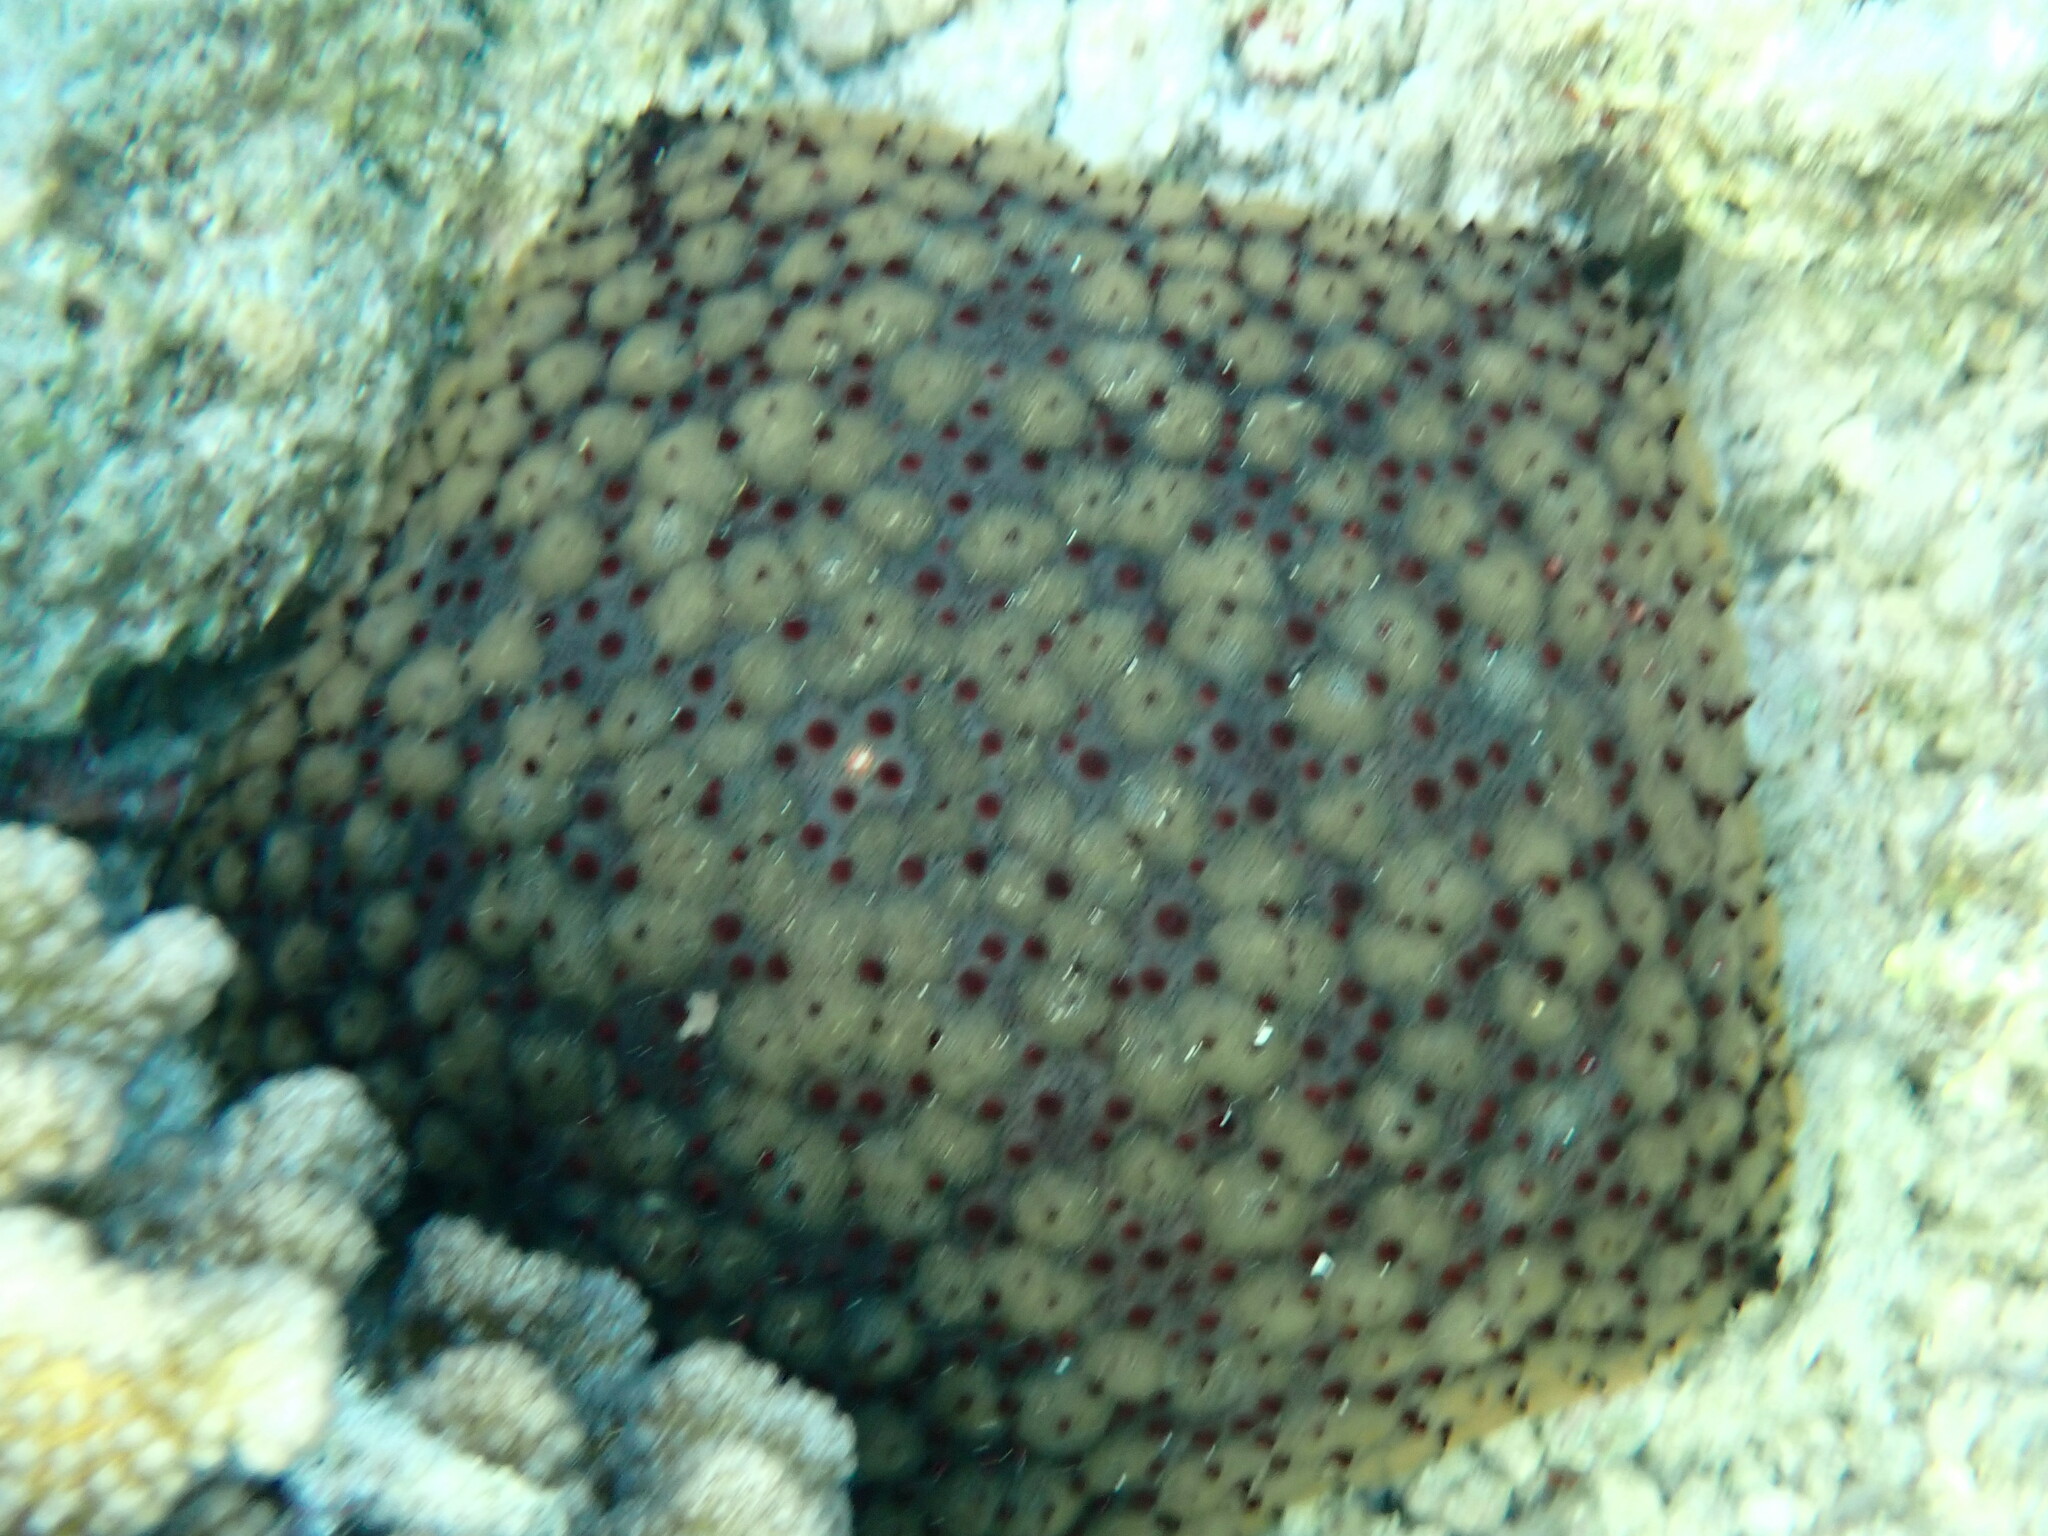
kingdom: Animalia
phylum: Echinodermata
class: Asteroidea
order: Valvatida
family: Oreasteridae
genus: Culcita
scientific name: Culcita schmideliana
